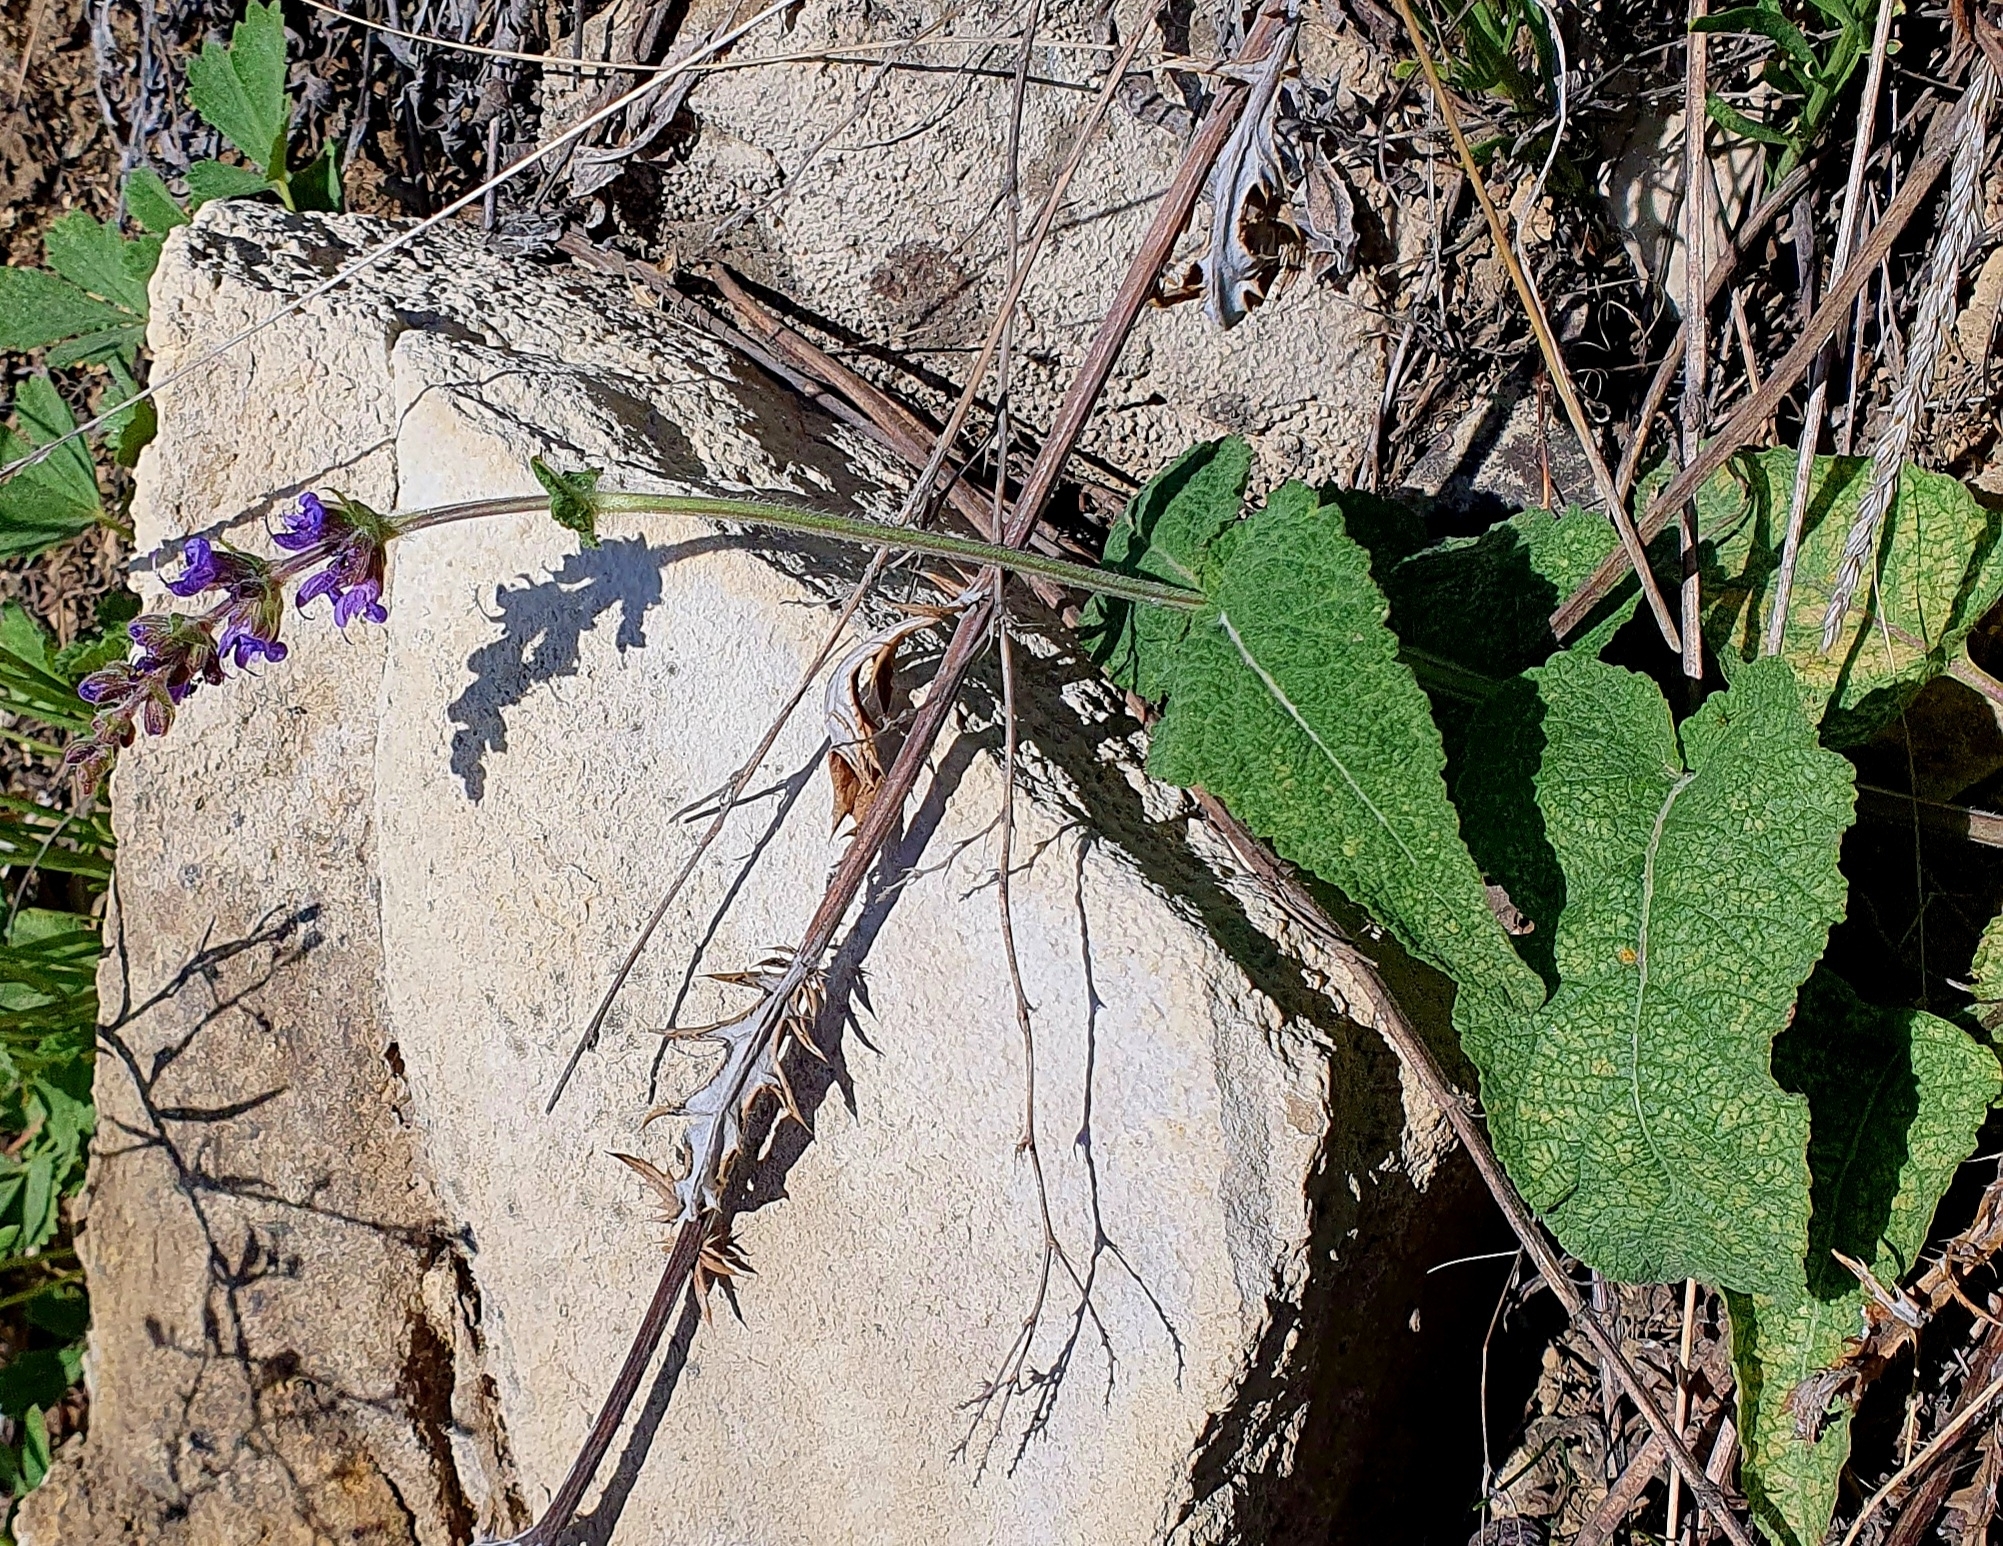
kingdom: Plantae
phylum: Tracheophyta
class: Magnoliopsida
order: Lamiales
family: Lamiaceae
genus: Salvia
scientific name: Salvia dumetorum
